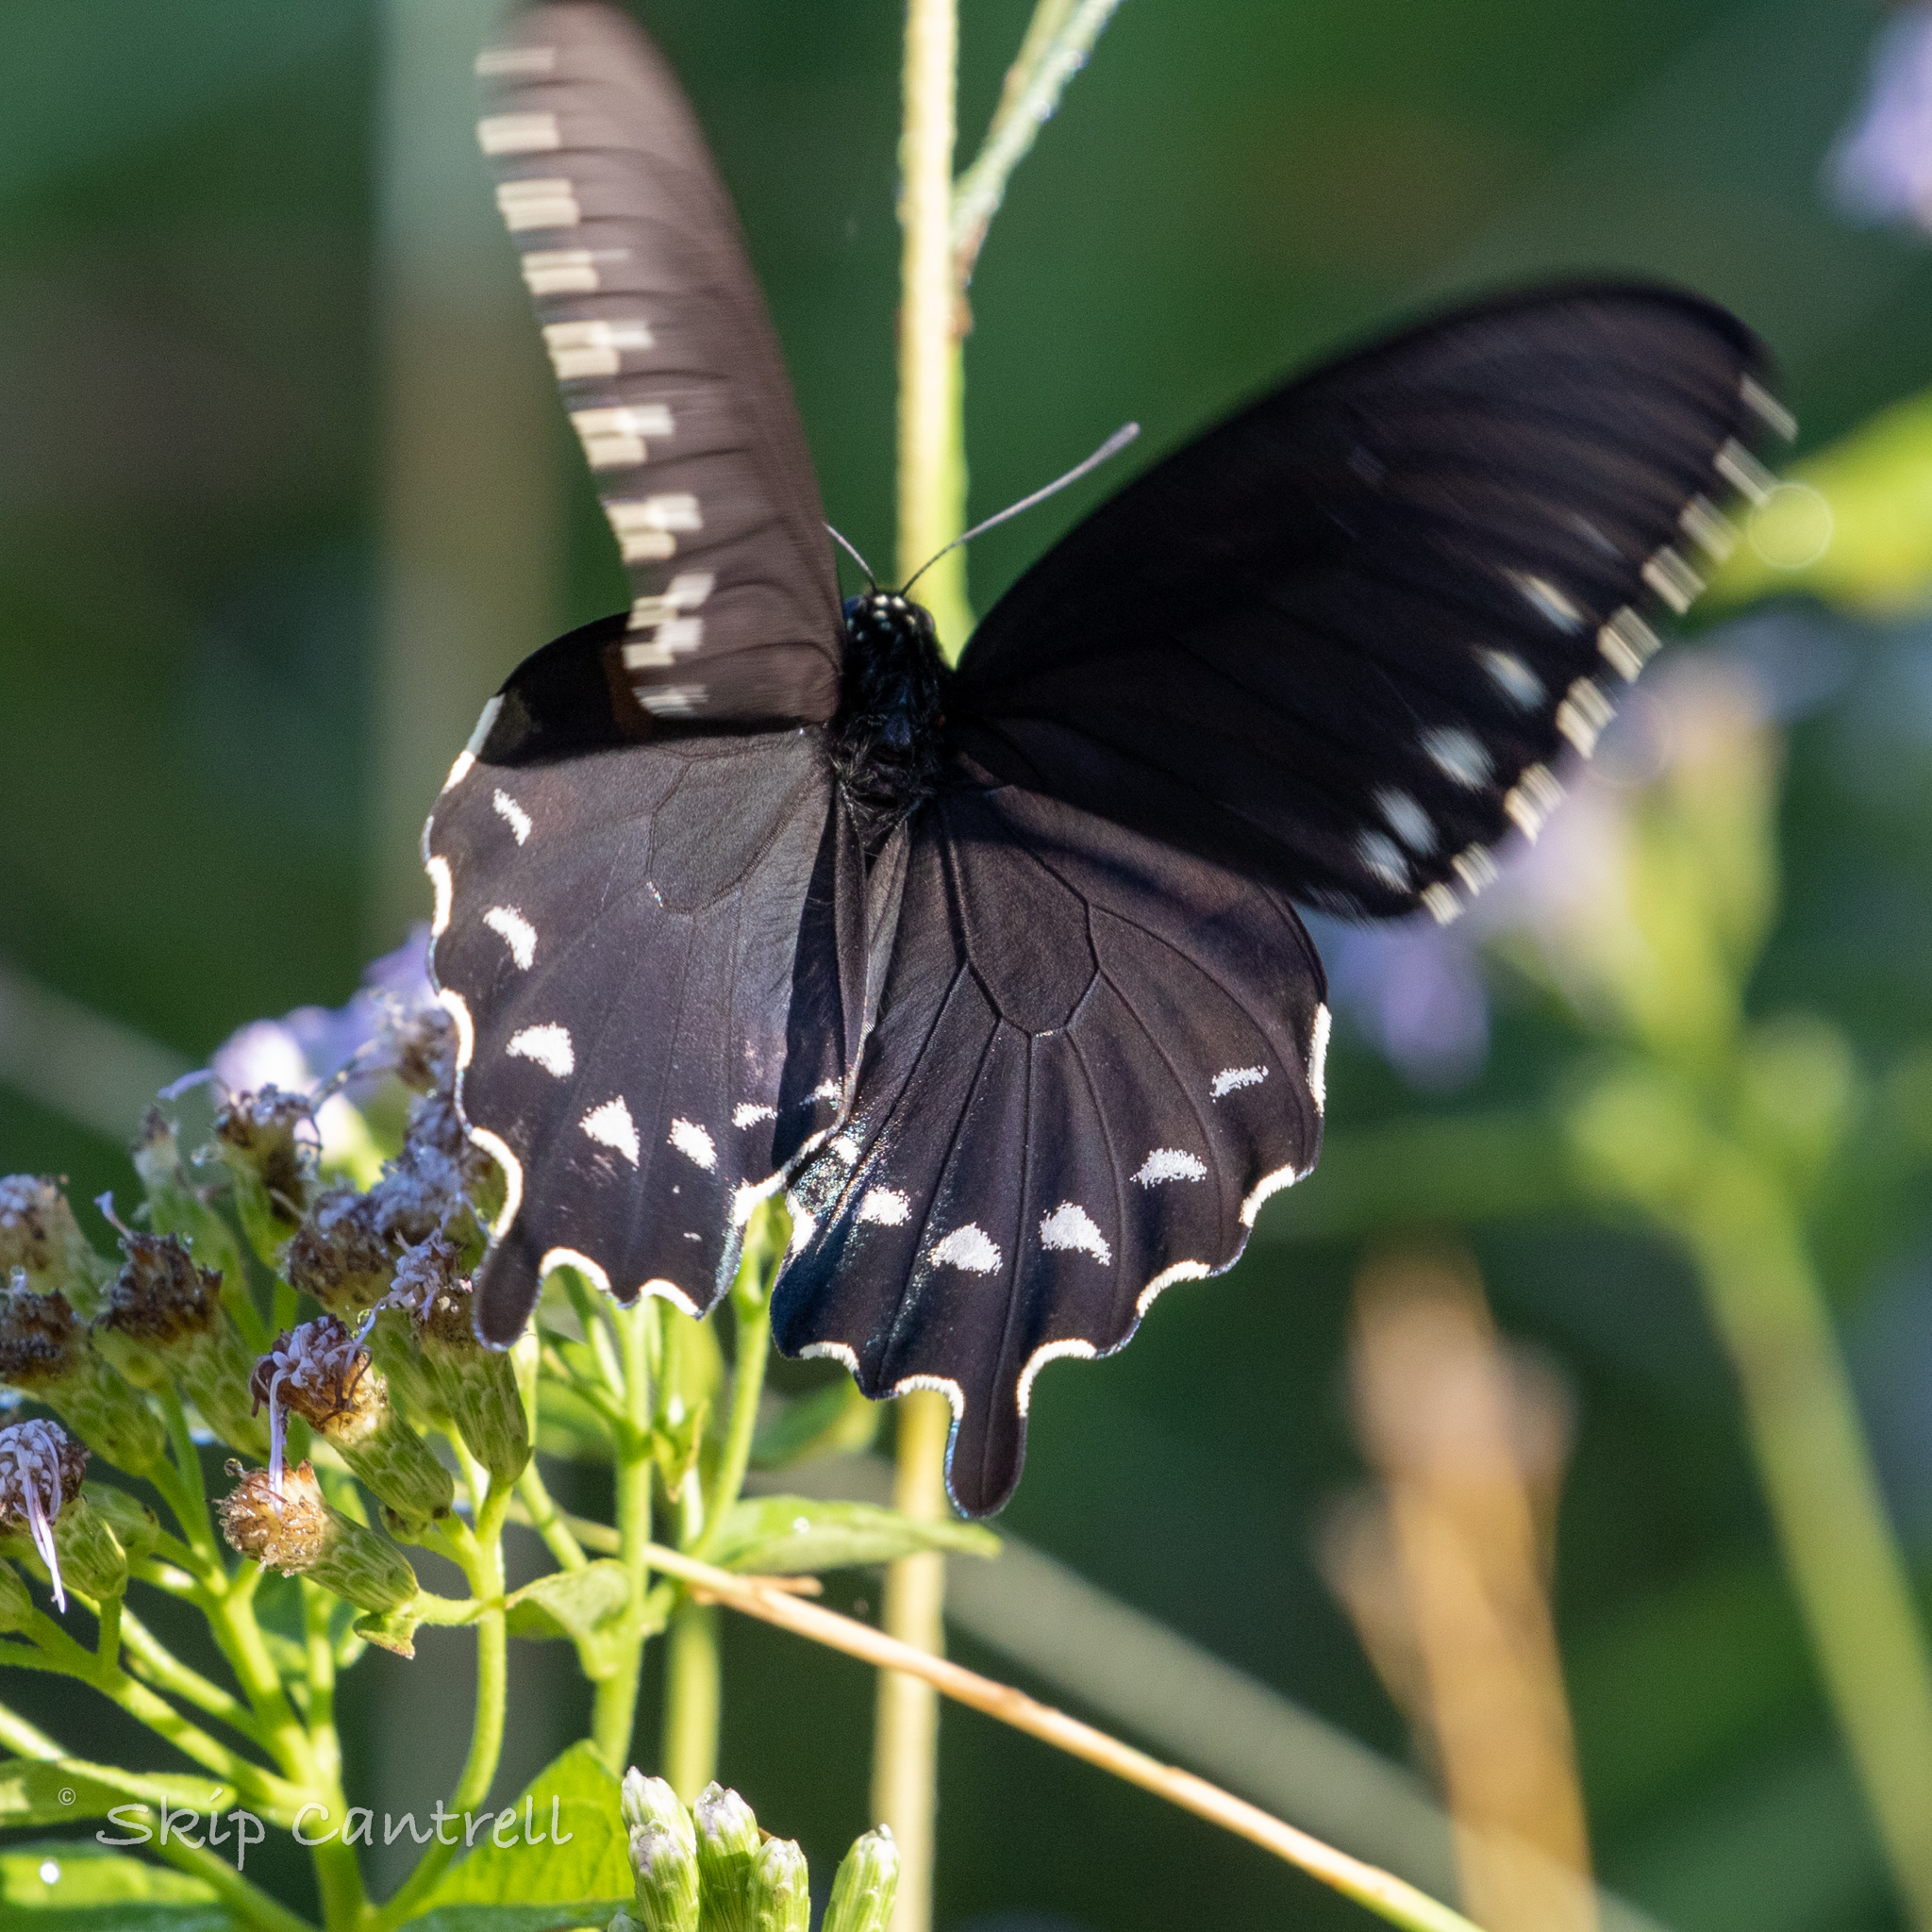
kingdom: Animalia
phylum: Arthropoda
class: Insecta
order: Lepidoptera
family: Papilionidae
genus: Battus
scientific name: Battus philenor
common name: Pipevine swallowtail
